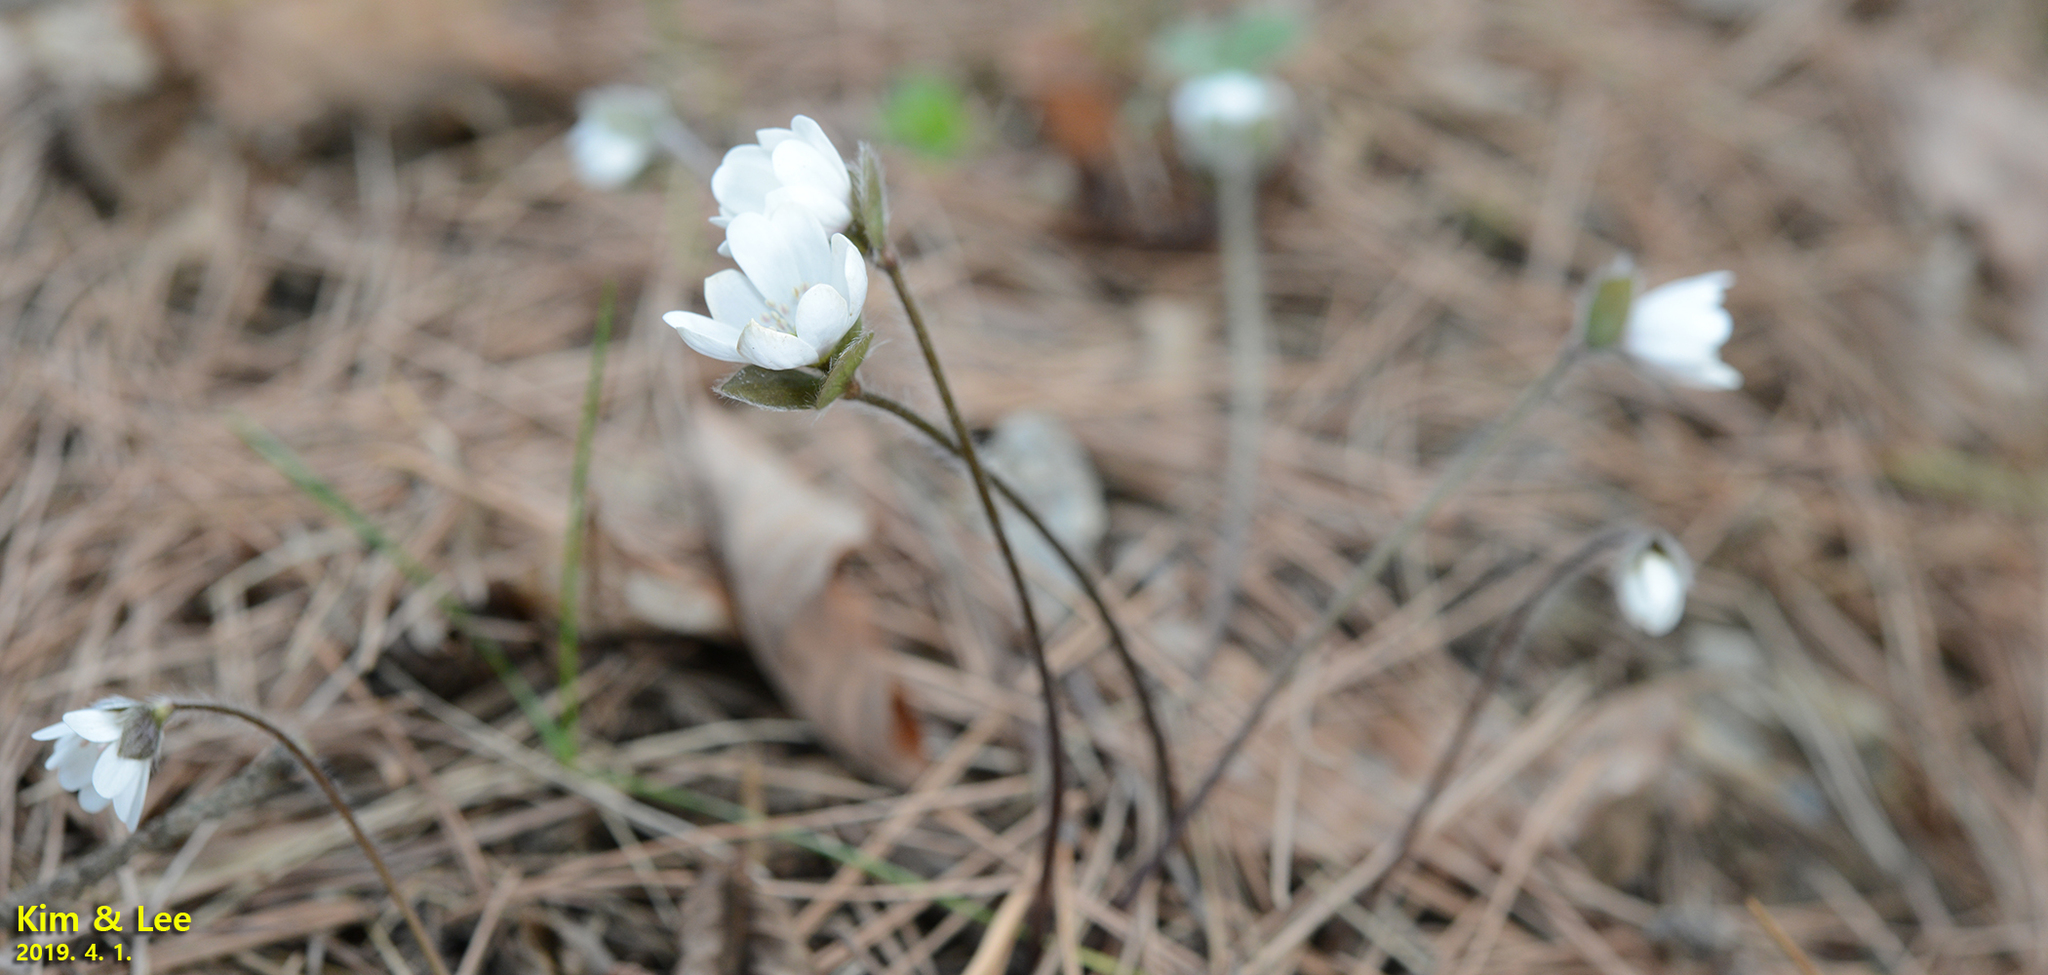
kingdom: Plantae
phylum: Tracheophyta
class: Magnoliopsida
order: Ranunculales
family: Ranunculaceae
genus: Hepatica
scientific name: Hepatica nobilis
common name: Liverleaf
